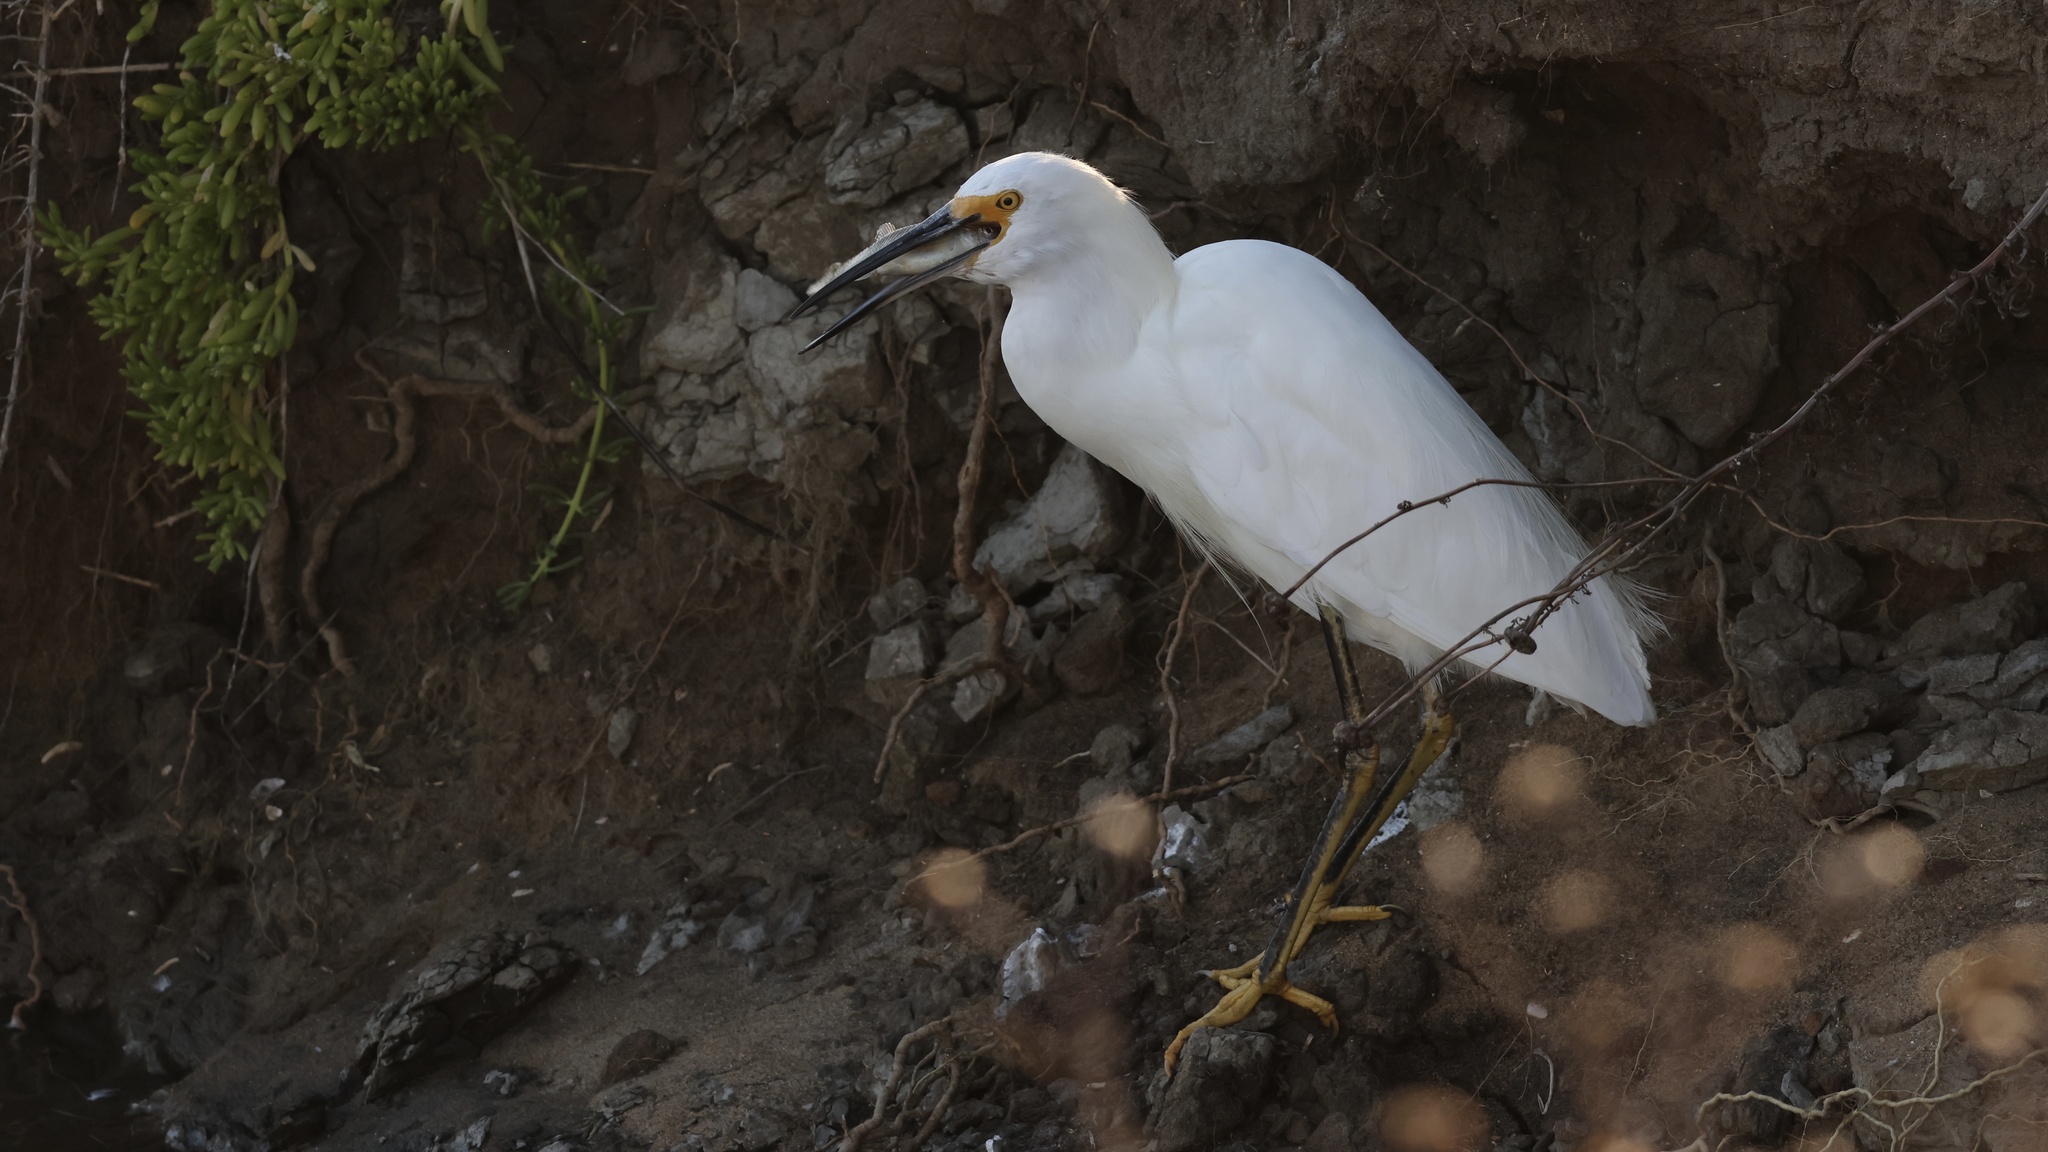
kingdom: Animalia
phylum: Chordata
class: Aves
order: Pelecaniformes
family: Ardeidae
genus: Egretta
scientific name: Egretta thula
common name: Snowy egret
